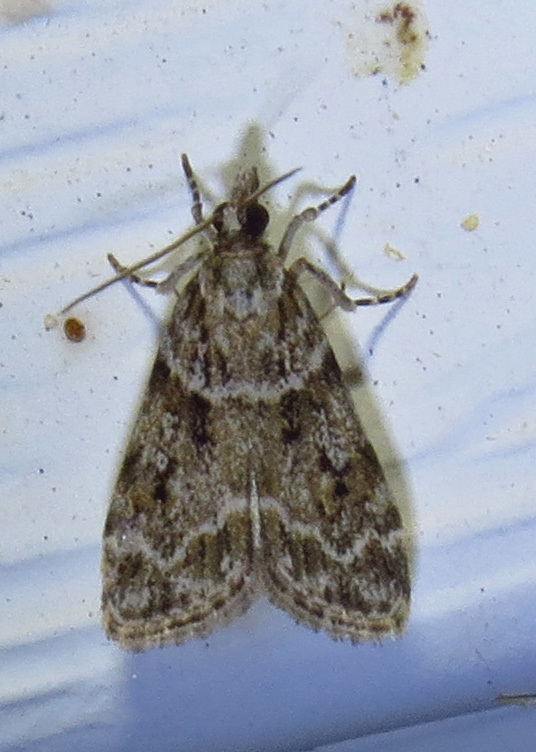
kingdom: Animalia
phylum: Arthropoda
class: Insecta
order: Lepidoptera
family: Crambidae
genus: Scoparia
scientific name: Scoparia biplagialis
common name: Double-striped scoparia moth
